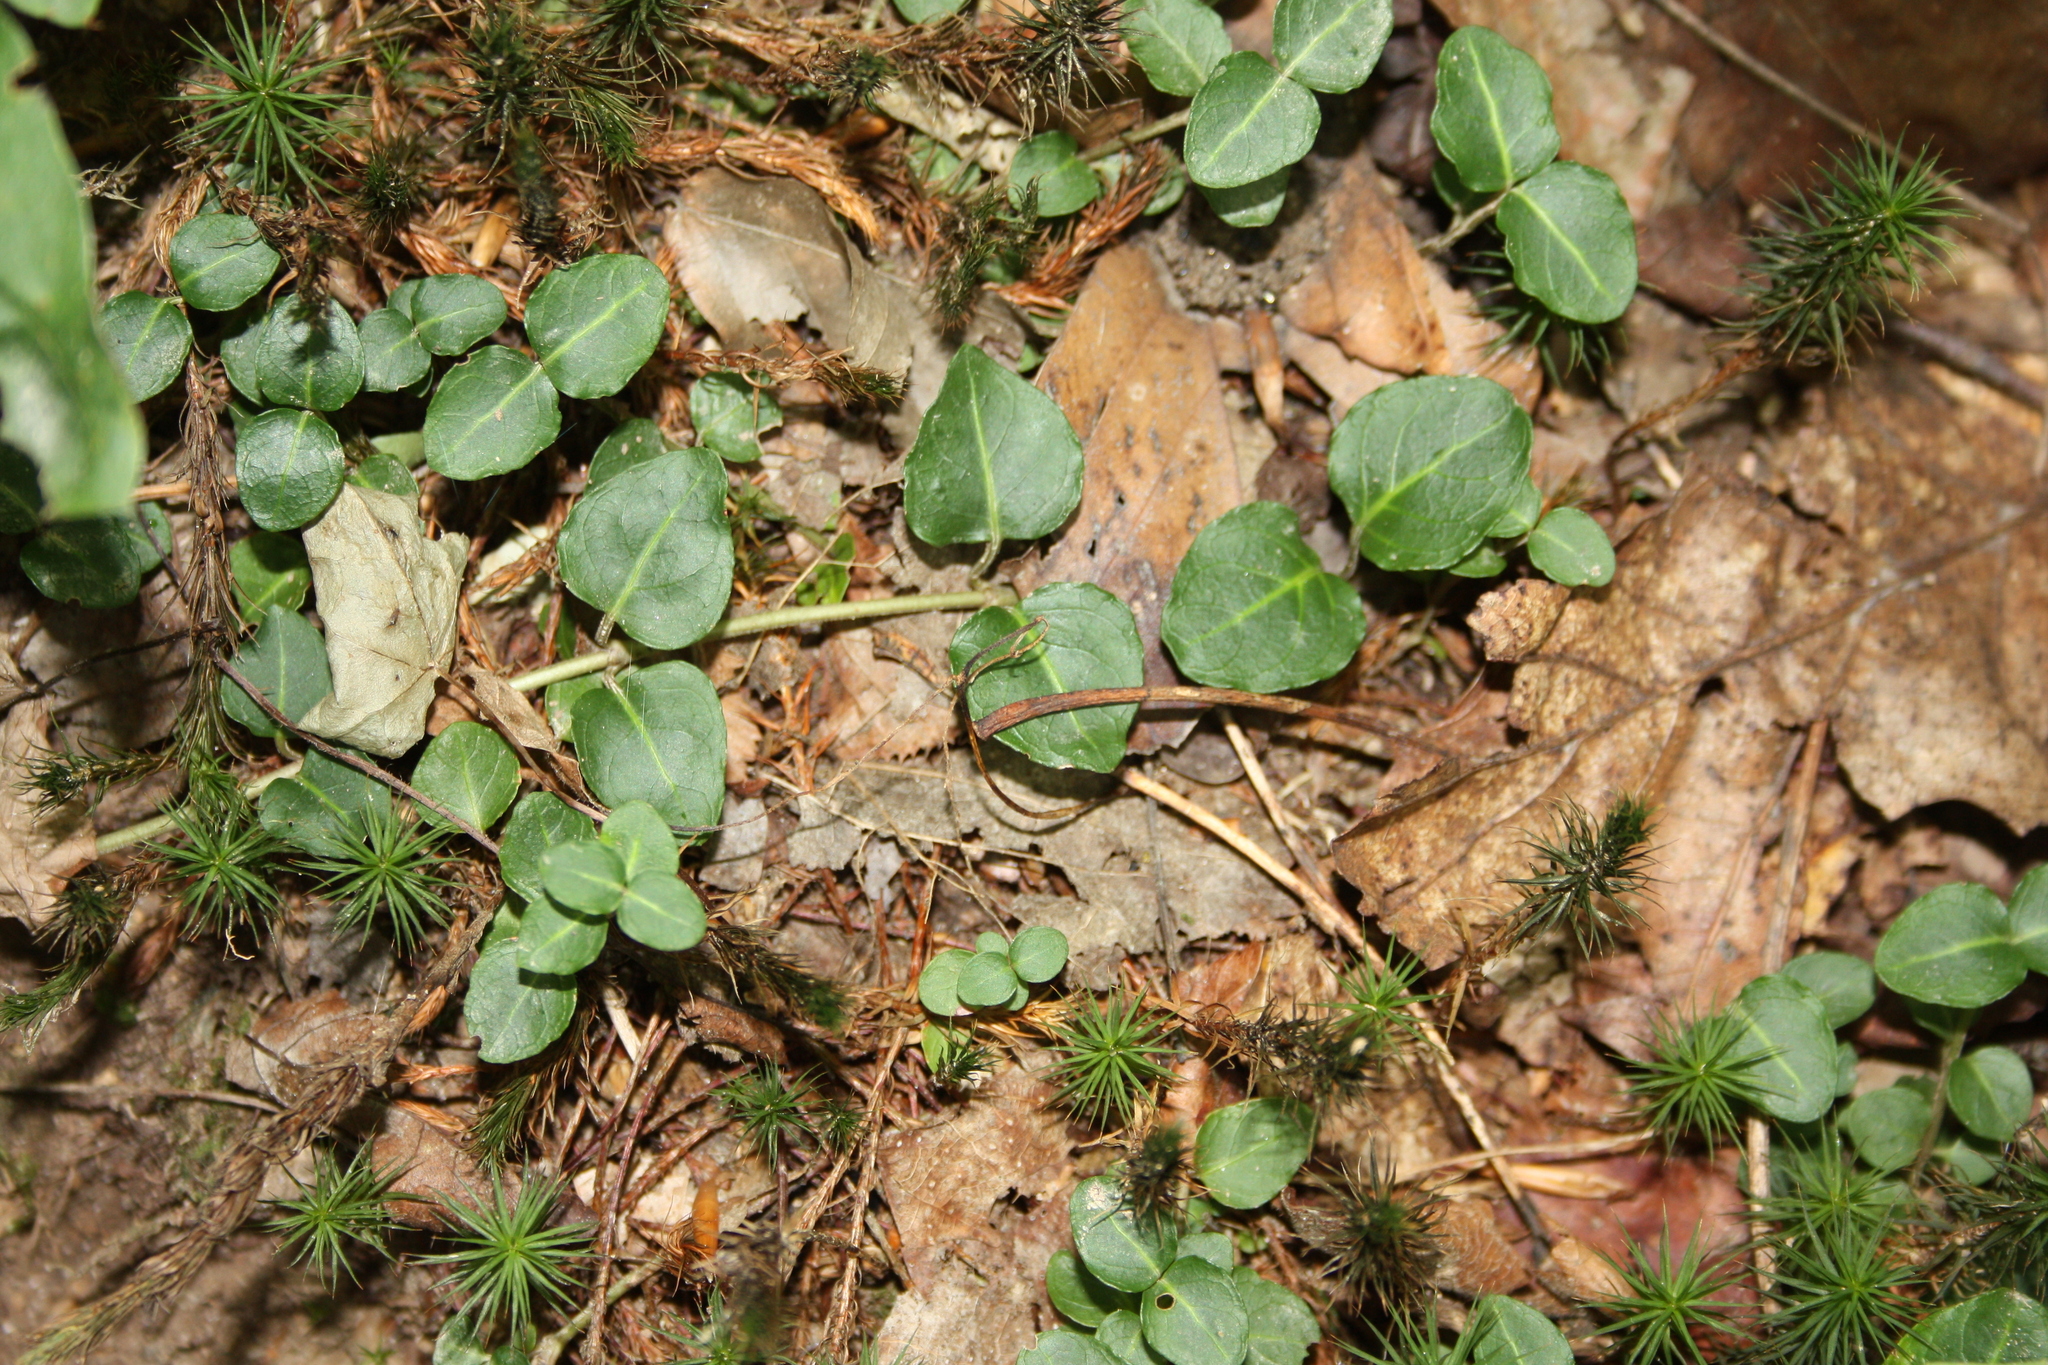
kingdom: Plantae
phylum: Tracheophyta
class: Magnoliopsida
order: Gentianales
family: Rubiaceae
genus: Mitchella
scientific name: Mitchella repens
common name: Partridge-berry
